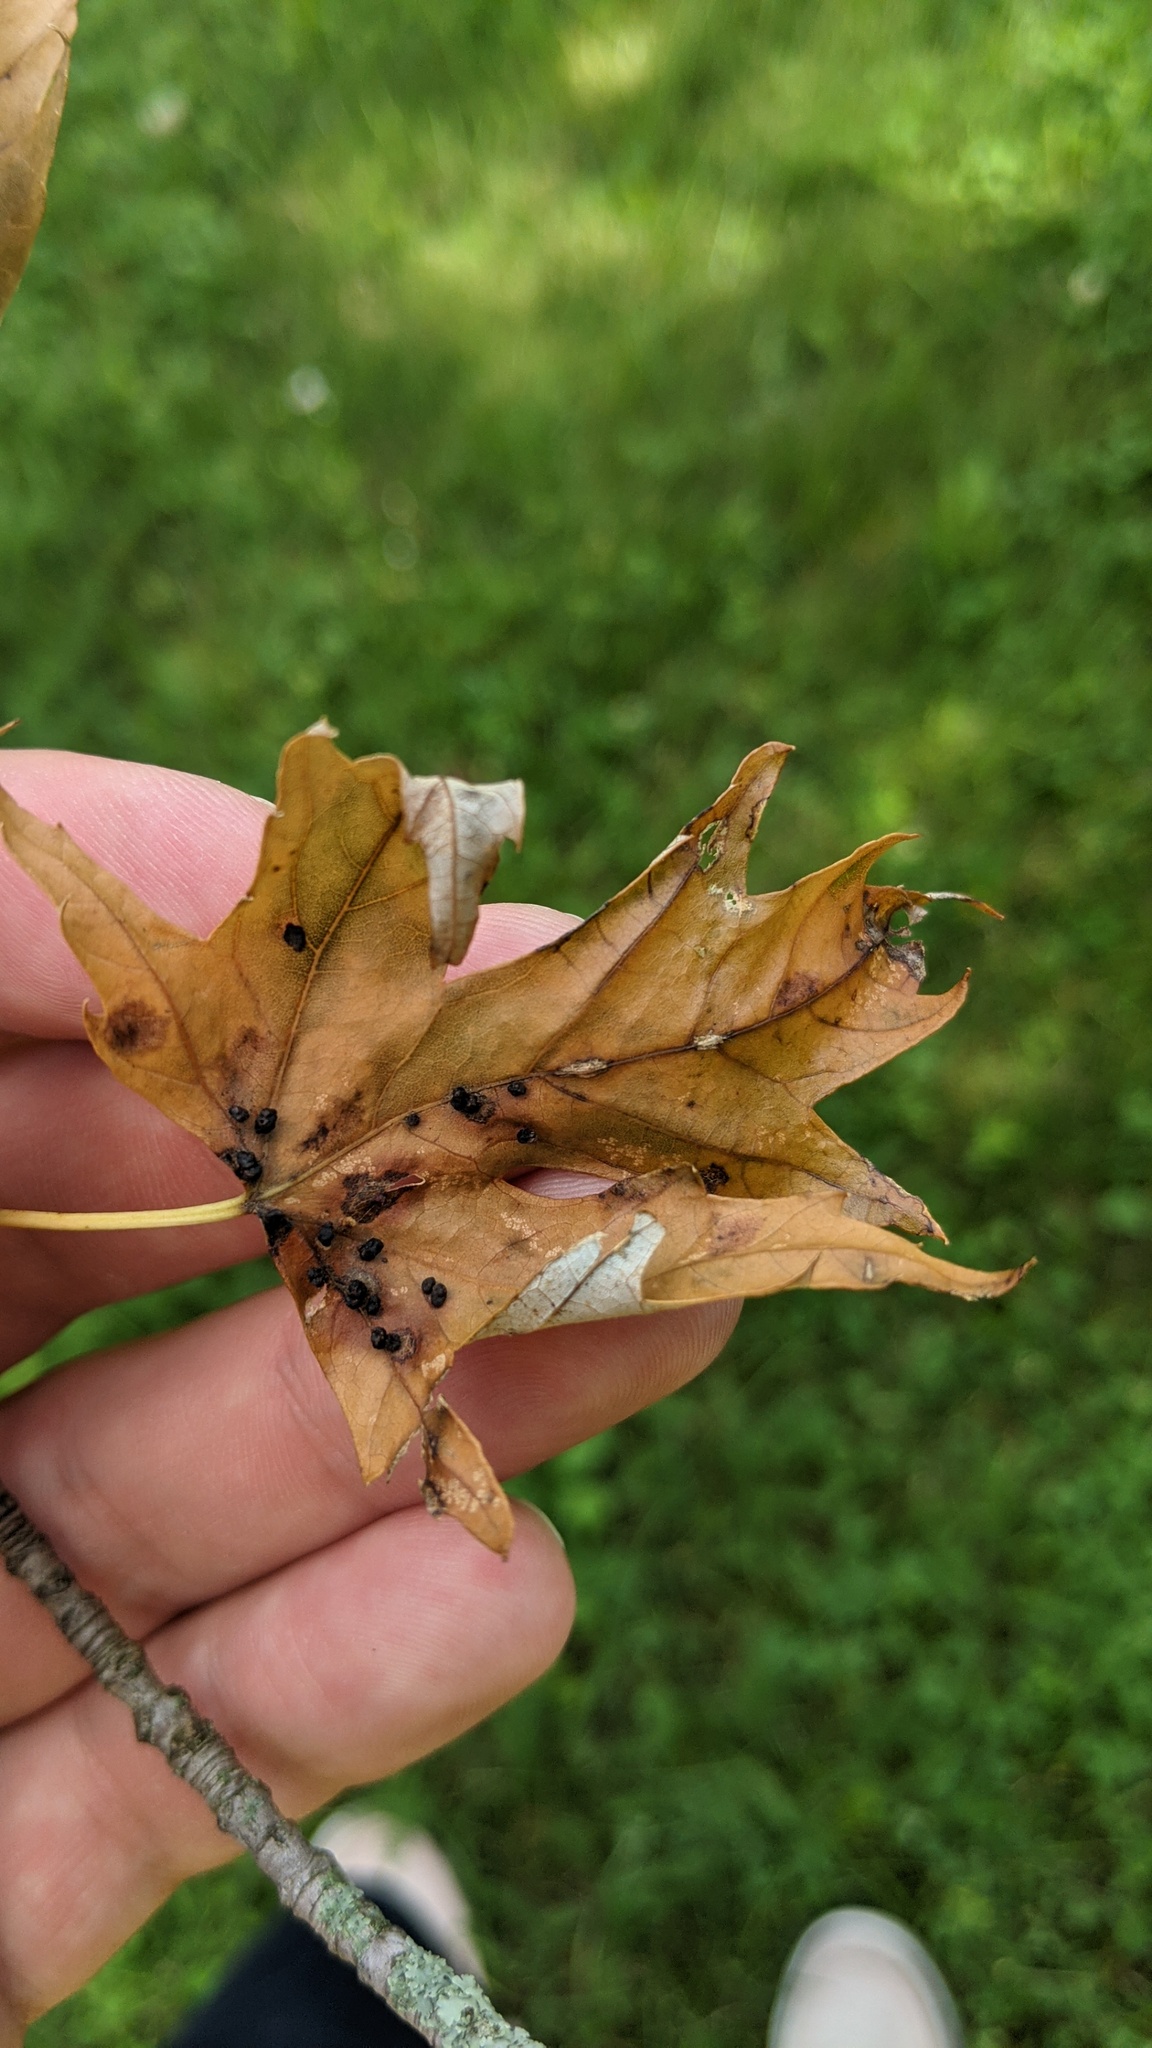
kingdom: Animalia
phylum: Arthropoda
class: Arachnida
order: Trombidiformes
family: Eriophyidae
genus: Vasates
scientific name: Vasates quadripedes
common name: Maple bladder gall mite
